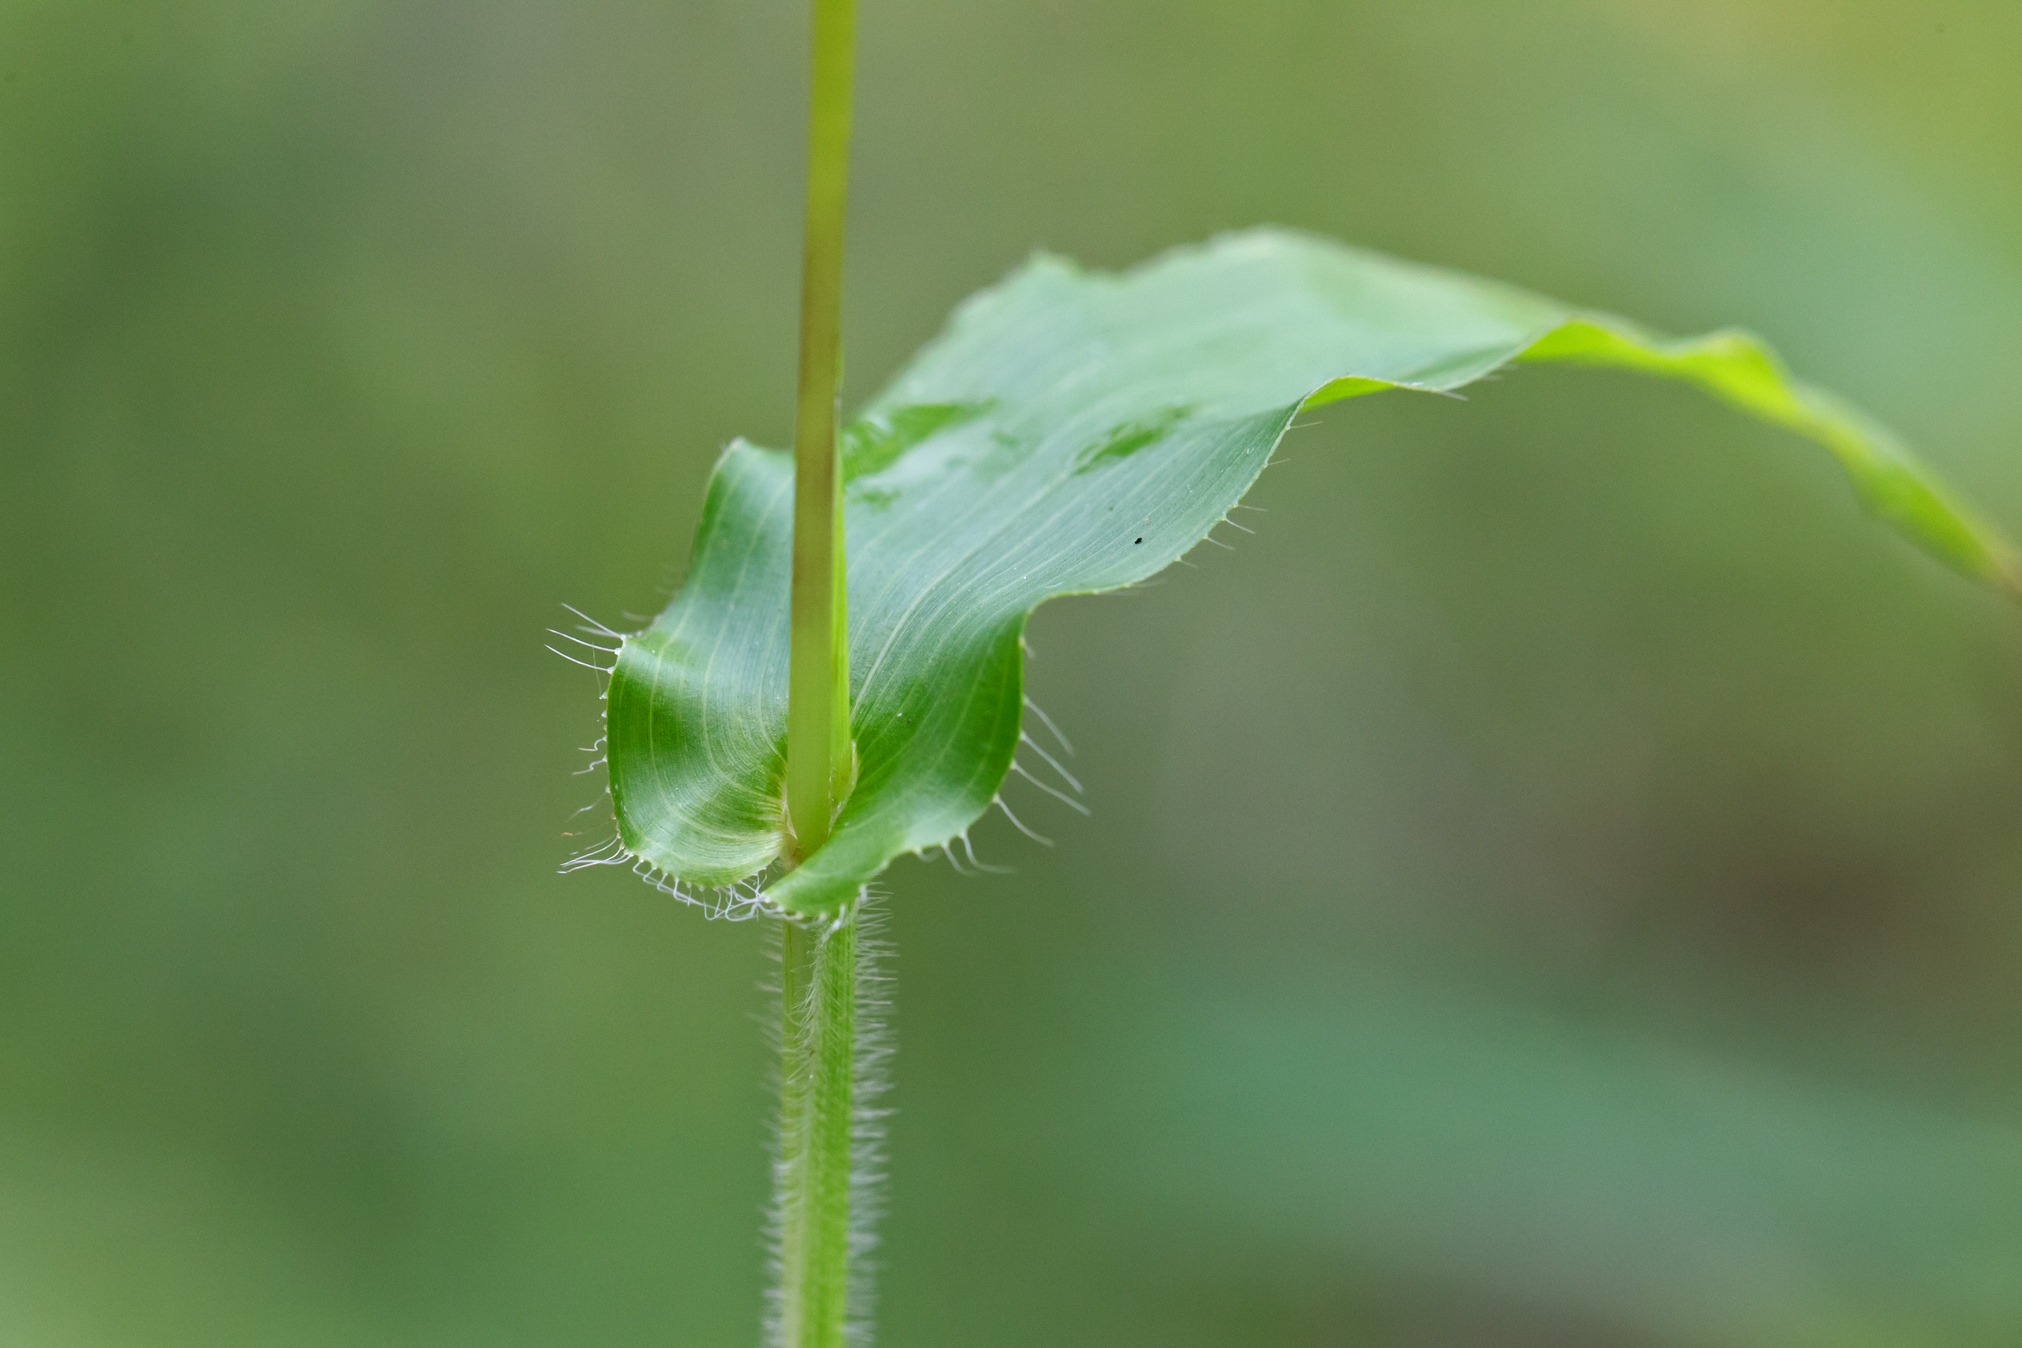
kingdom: Plantae
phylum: Tracheophyta
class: Liliopsida
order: Poales
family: Poaceae
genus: Arthraxon
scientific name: Arthraxon hispidus
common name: Small carpgrass
